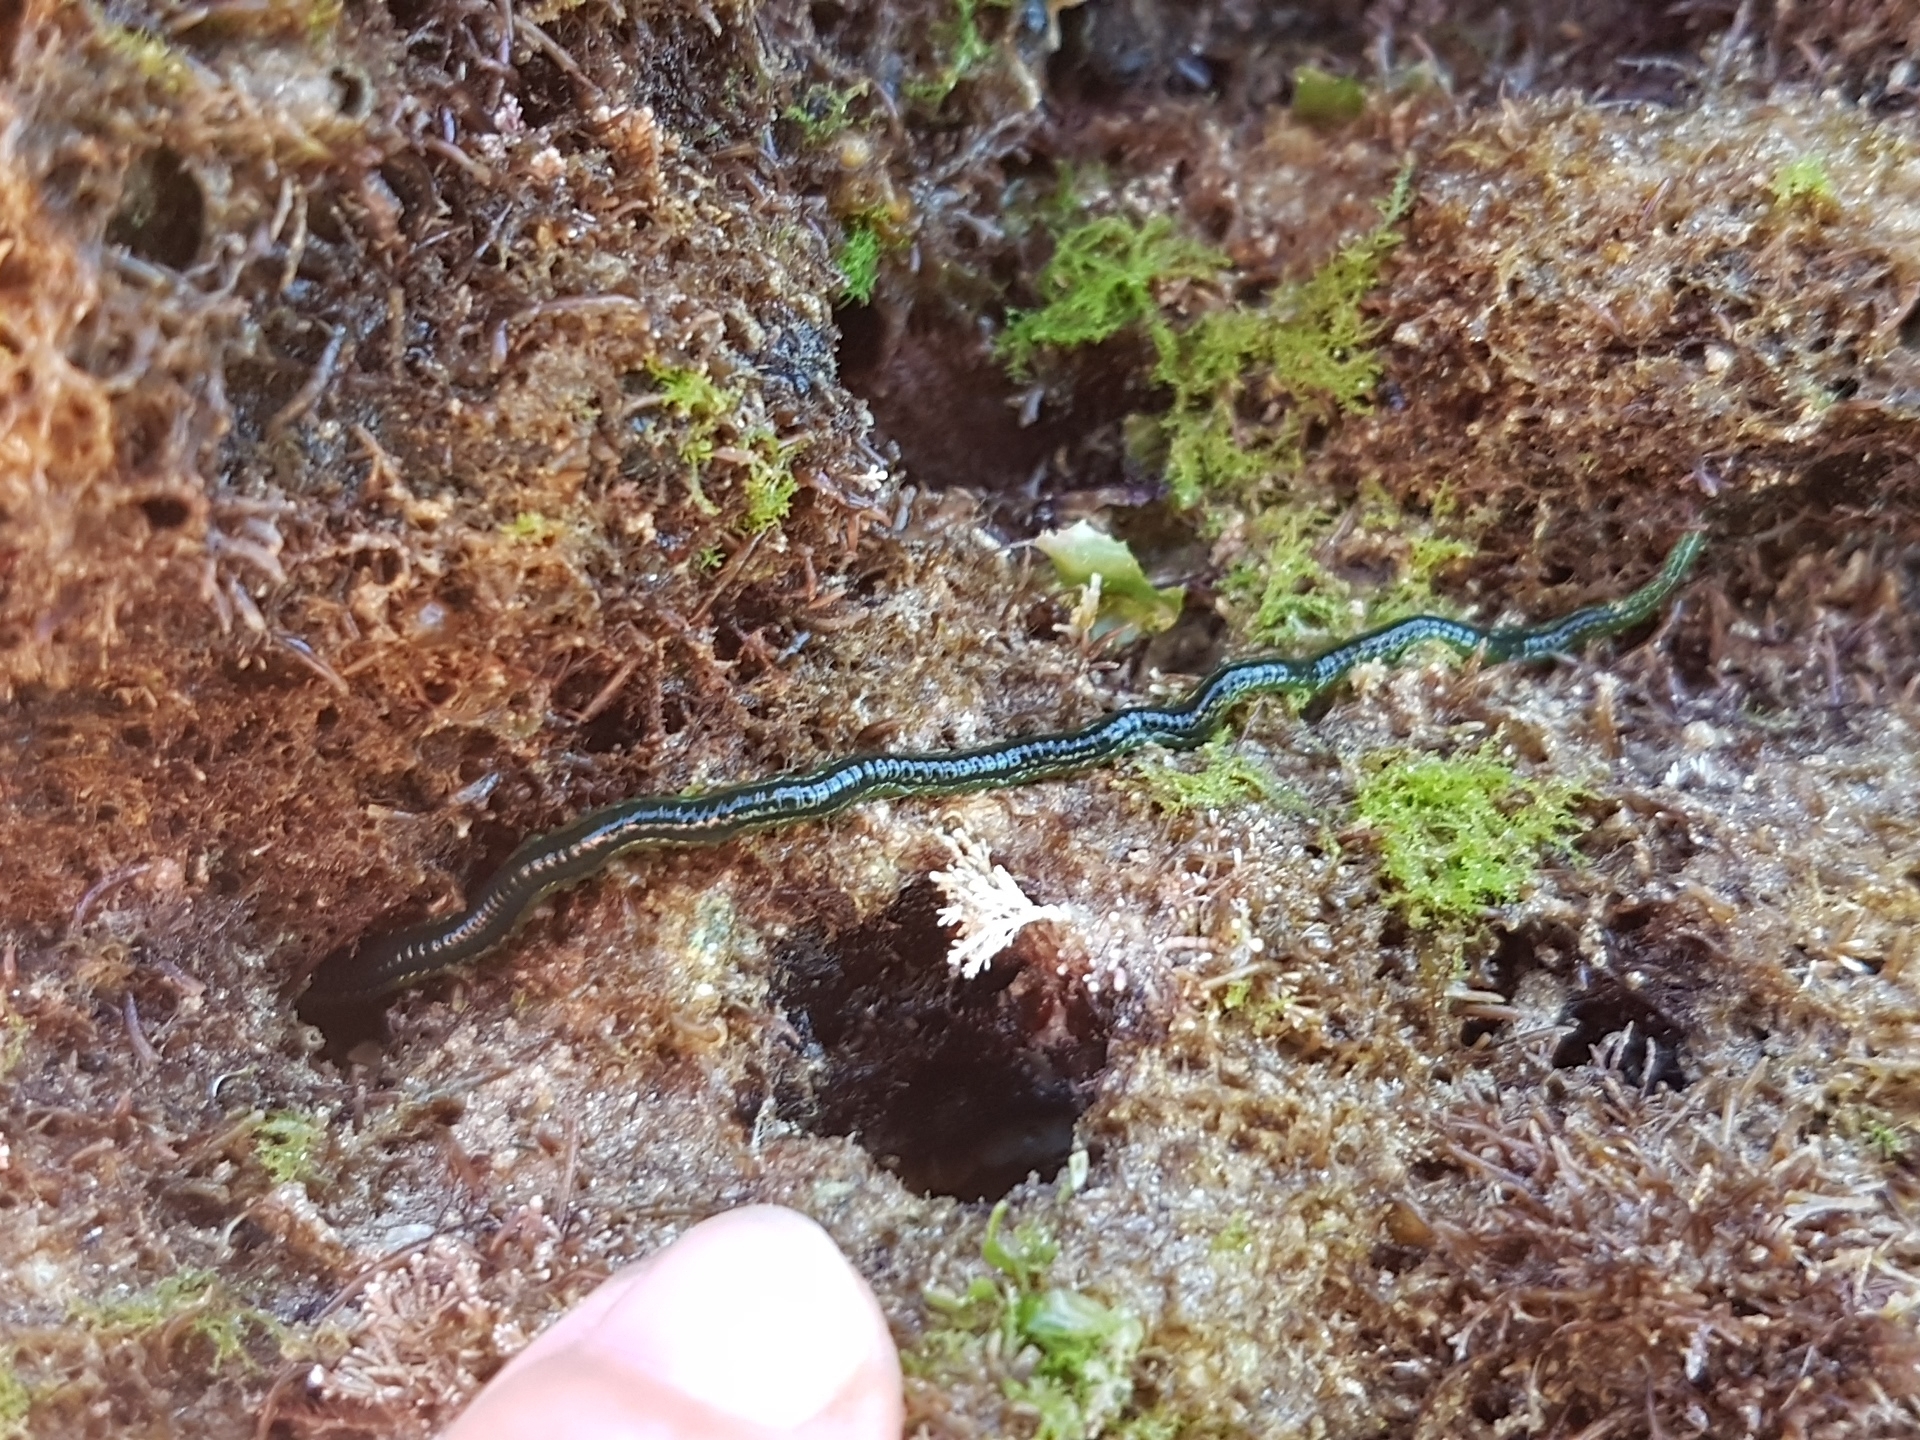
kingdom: Animalia
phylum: Annelida
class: Polychaeta
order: Phyllodocida
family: Phyllodocidae
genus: Eulalia
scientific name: Eulalia clavigera
